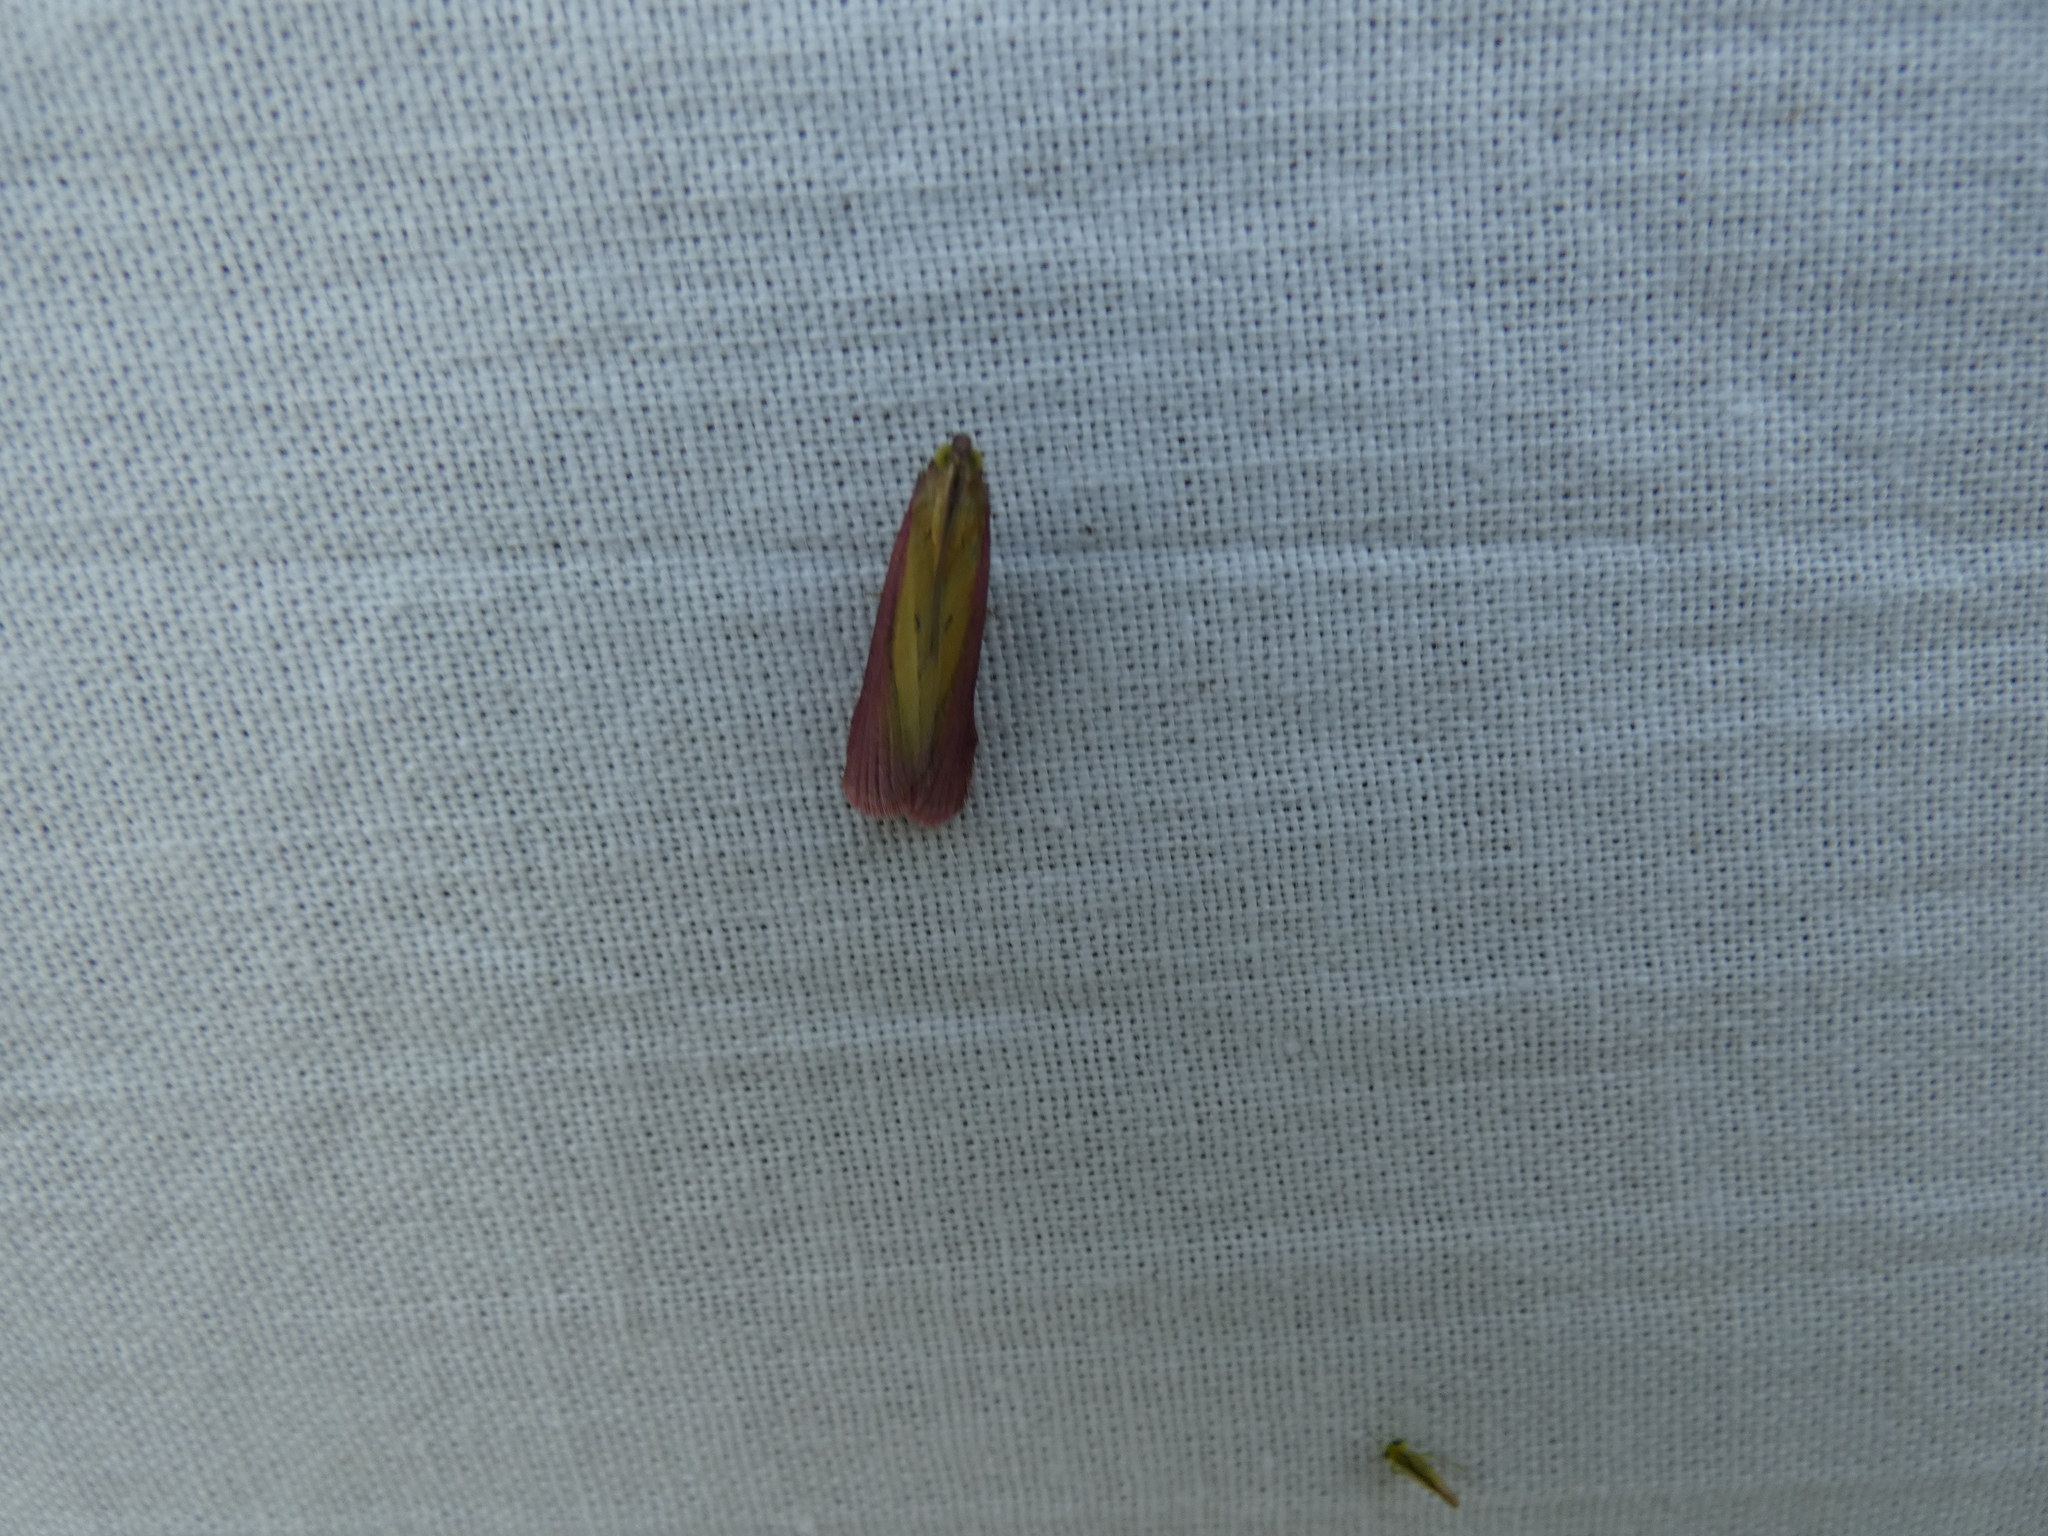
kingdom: Animalia
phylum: Arthropoda
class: Insecta
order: Lepidoptera
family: Pyralidae
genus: Oncocera
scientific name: Oncocera semirubella
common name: Rosy-striped knot-horn
